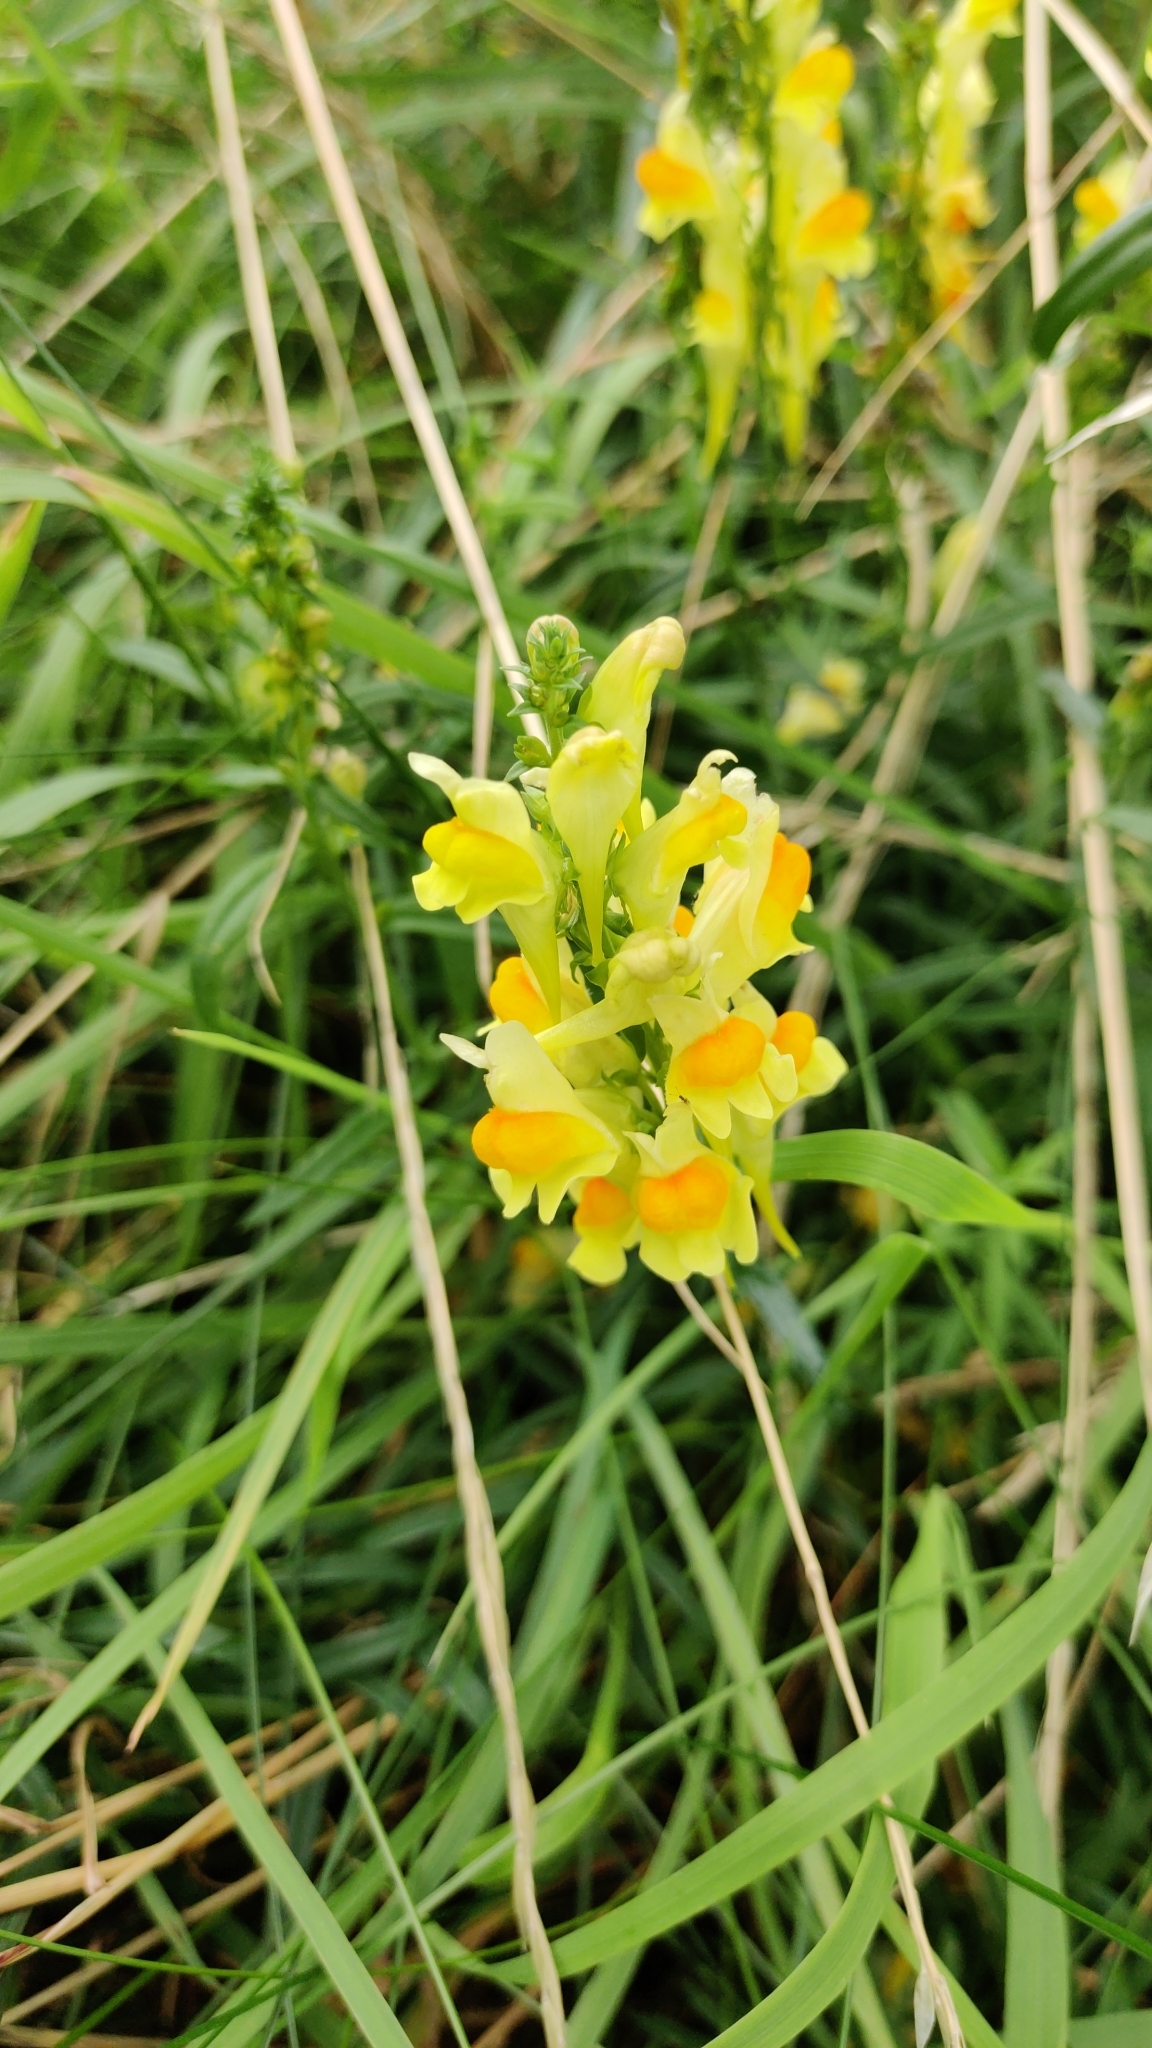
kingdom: Plantae
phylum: Tracheophyta
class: Magnoliopsida
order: Lamiales
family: Plantaginaceae
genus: Linaria
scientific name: Linaria vulgaris
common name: Butter and eggs
